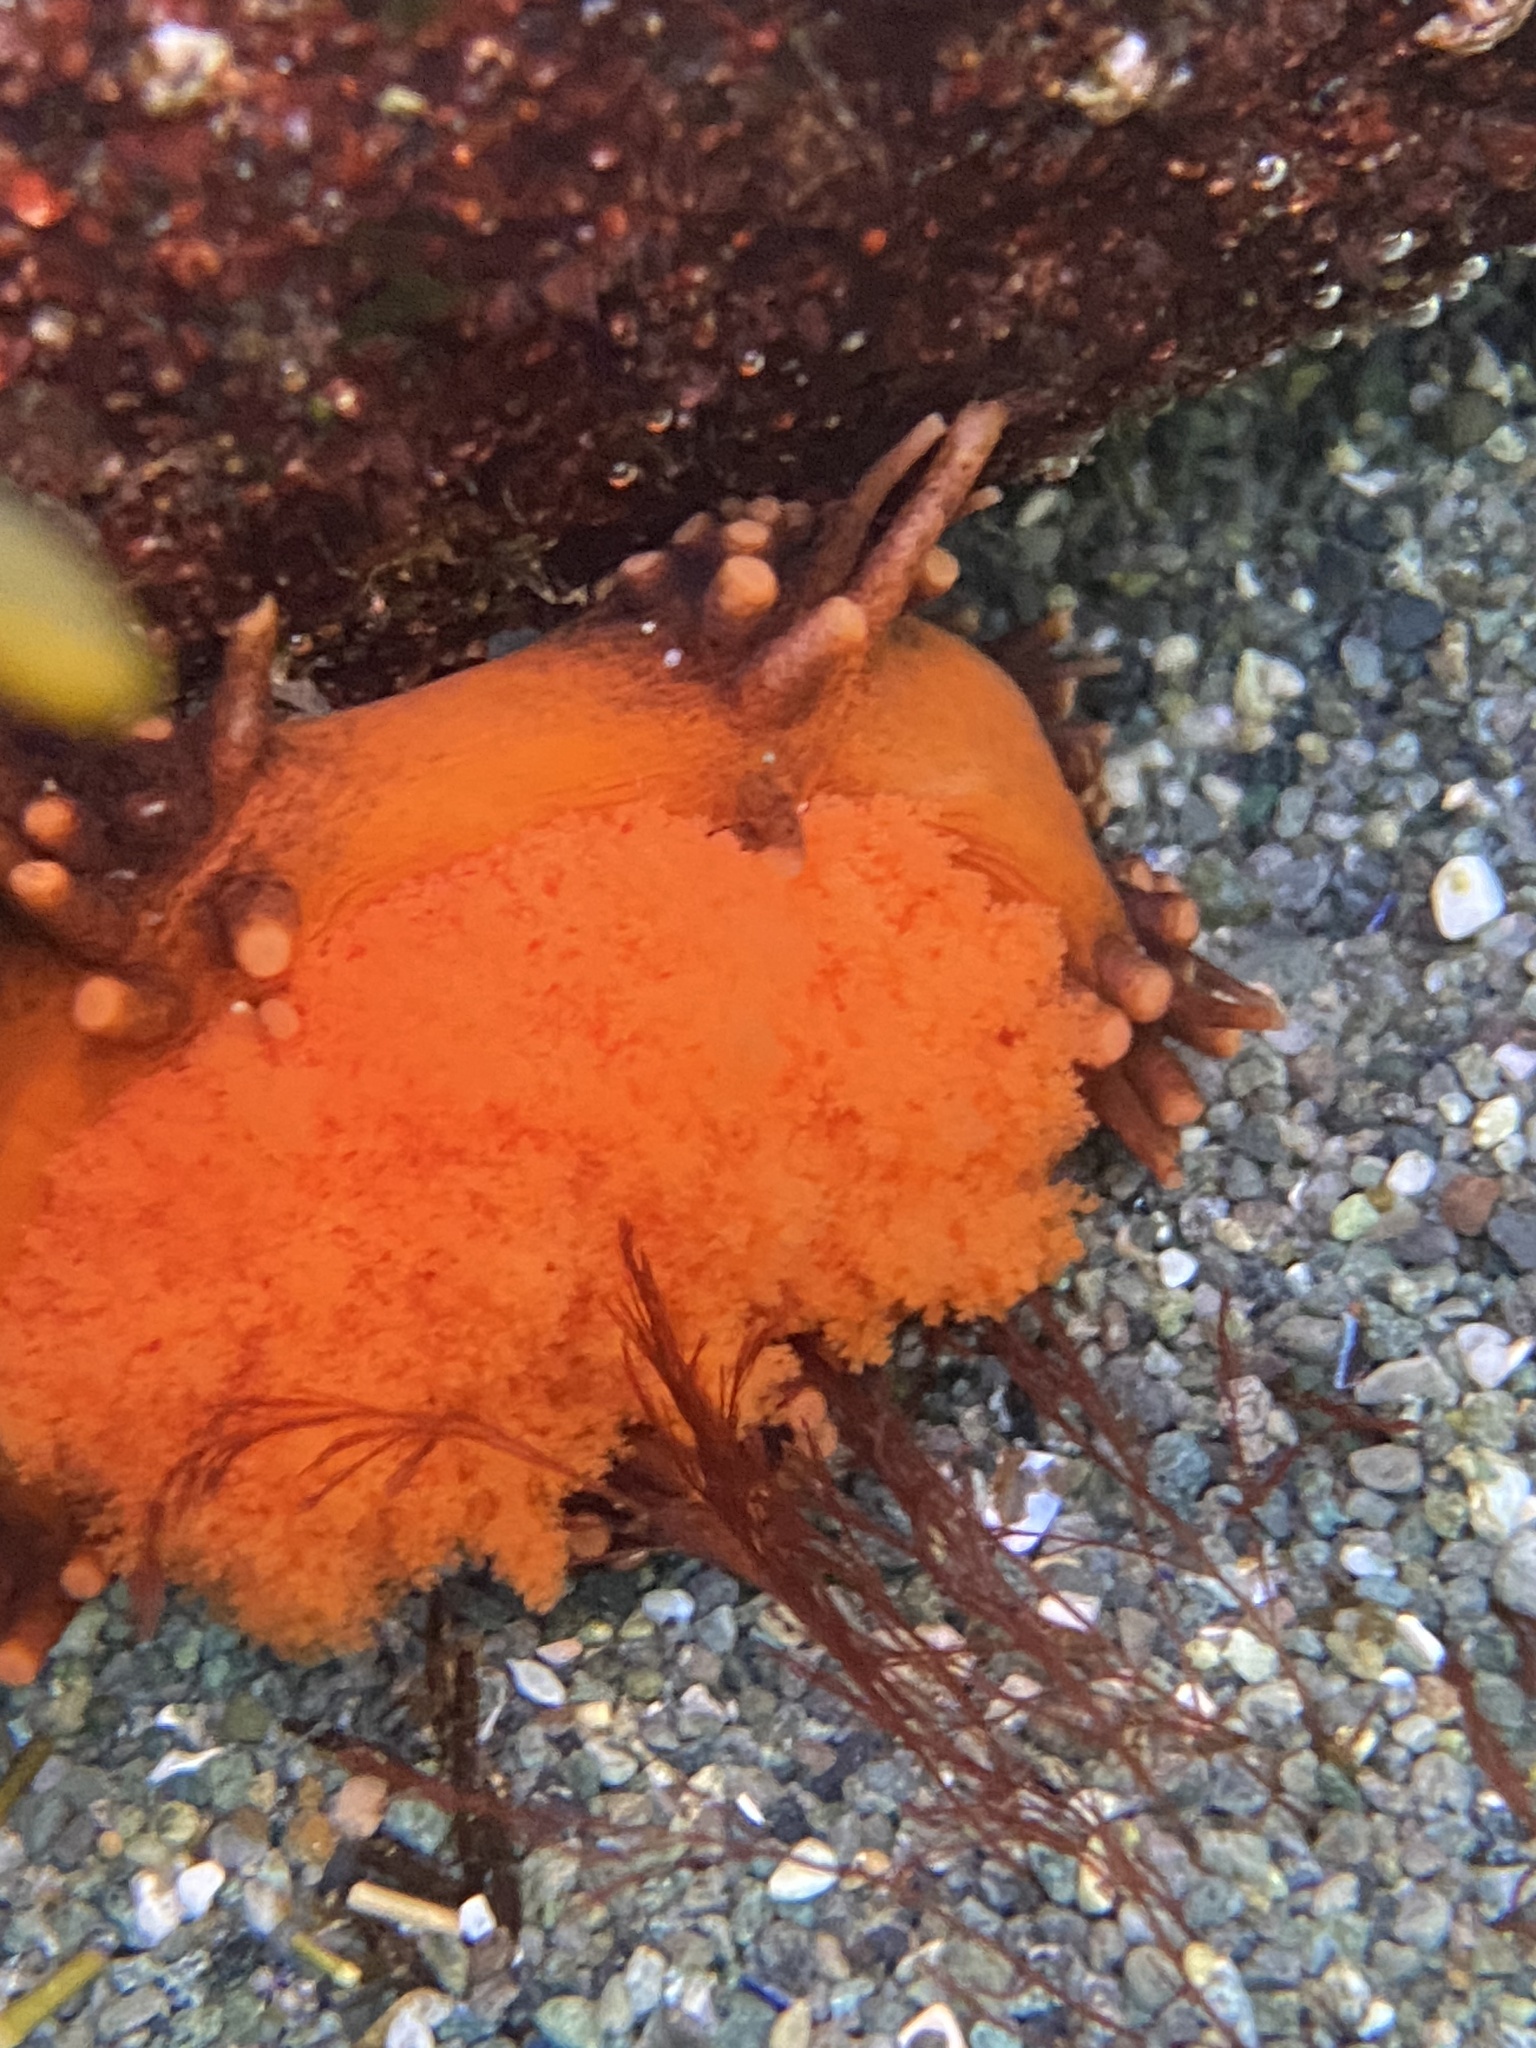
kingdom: Animalia
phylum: Echinodermata
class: Holothuroidea
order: Dendrochirotida
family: Cucumariidae
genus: Cucumaria
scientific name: Cucumaria miniata
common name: Orange sea cucumber
